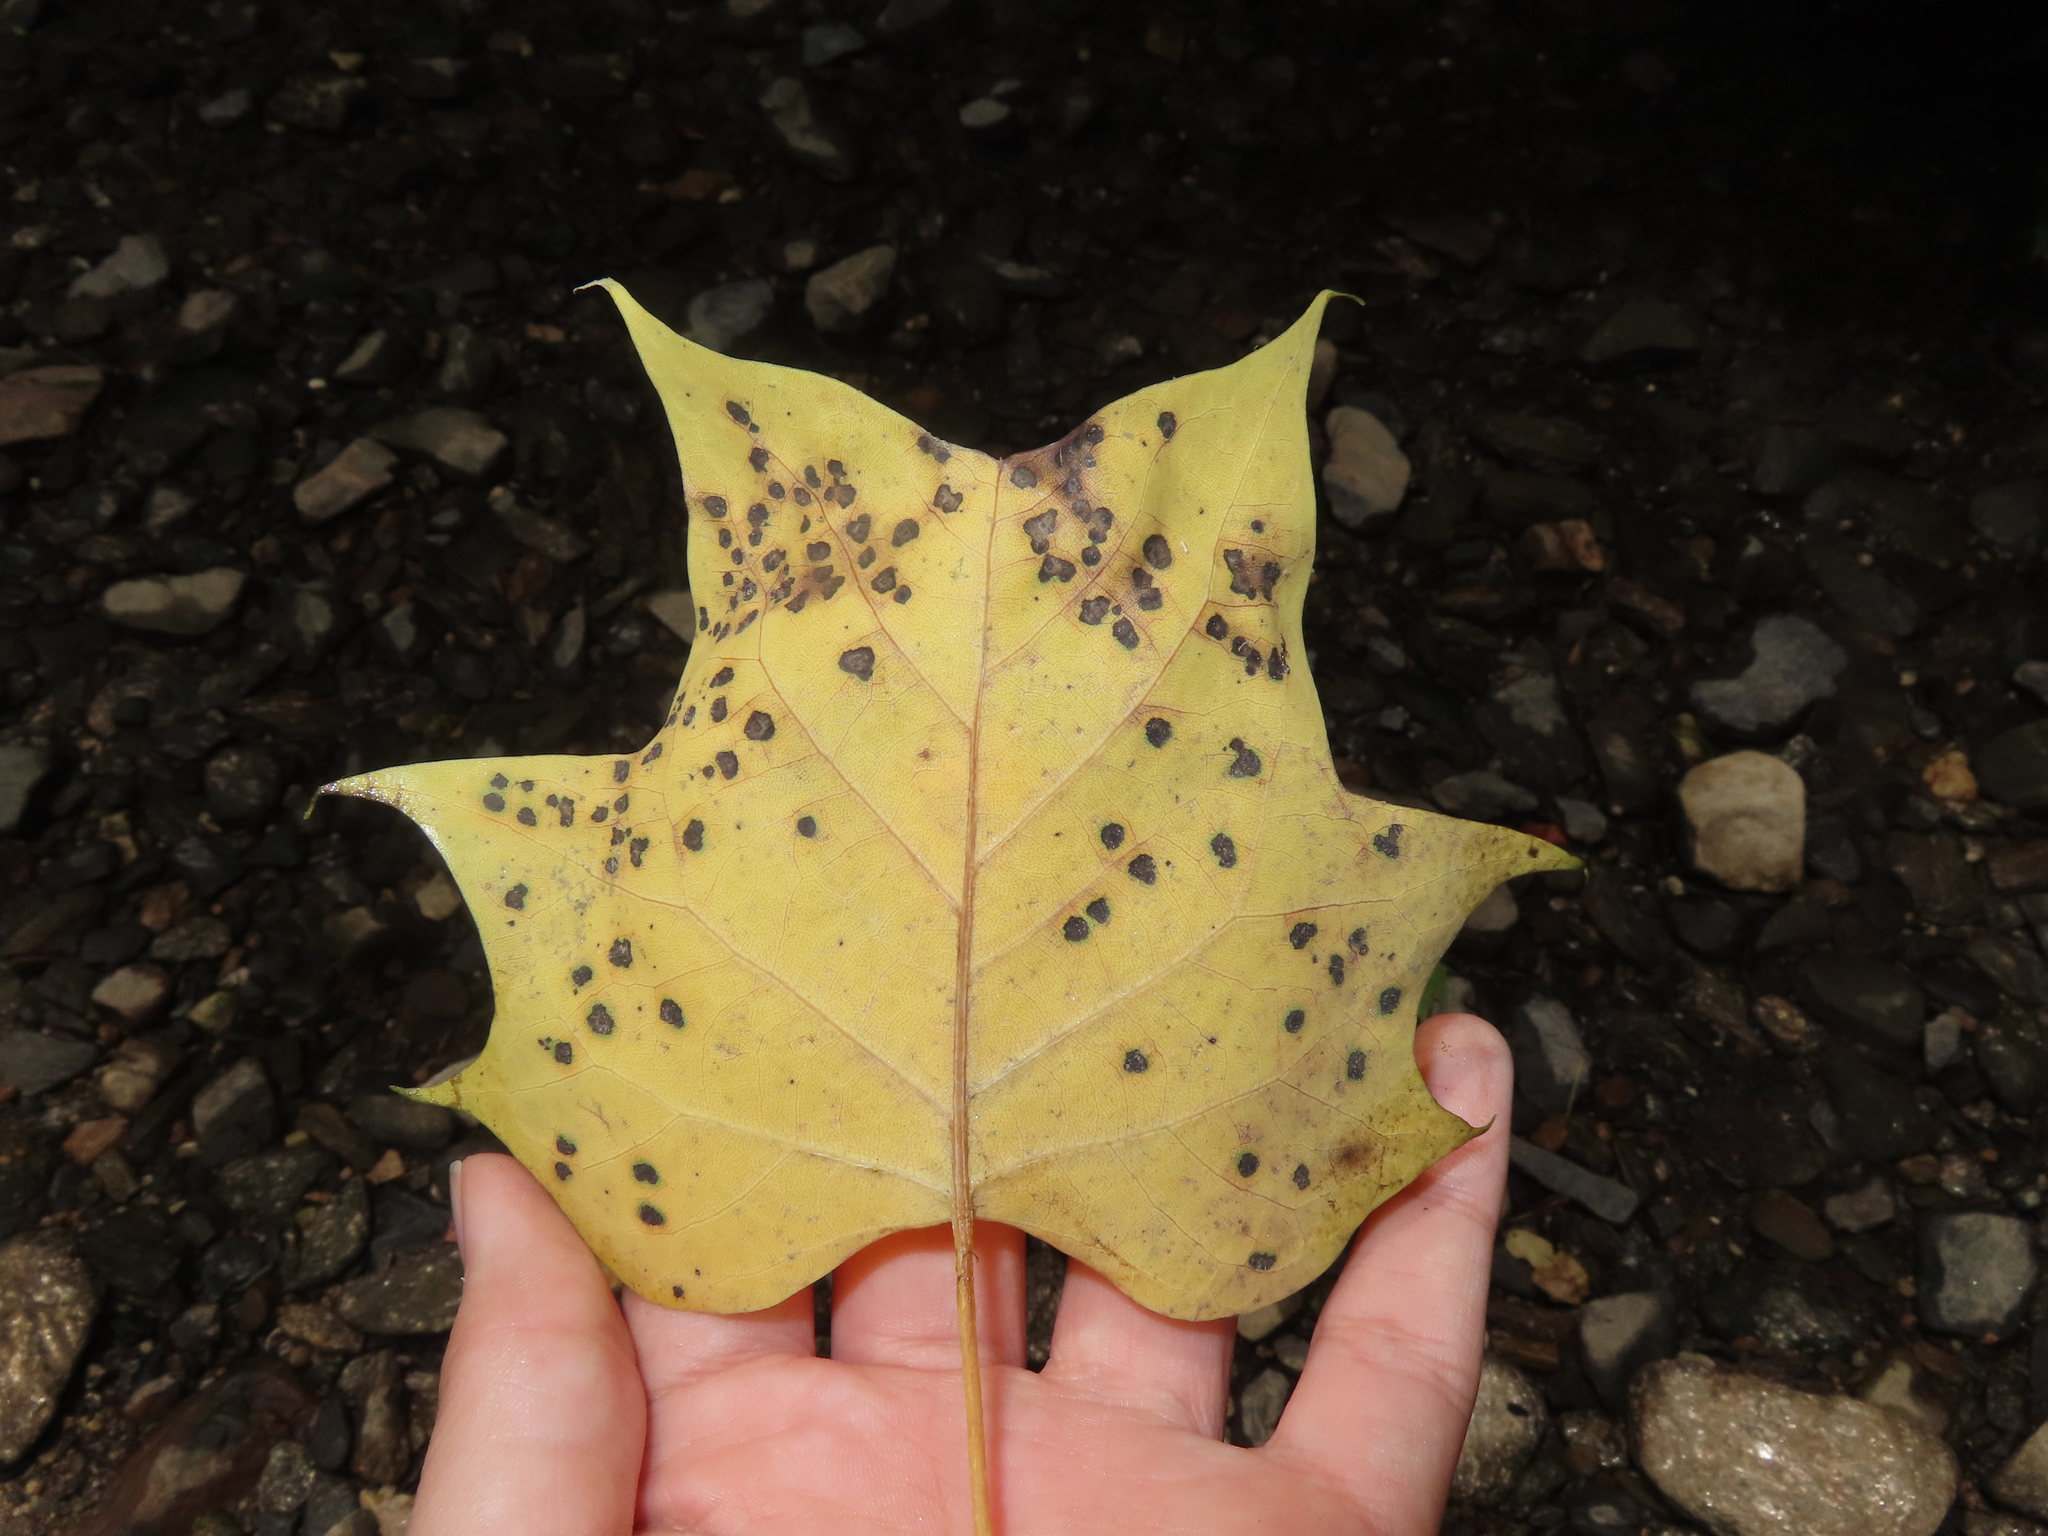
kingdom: Plantae
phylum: Tracheophyta
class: Magnoliopsida
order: Magnoliales
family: Magnoliaceae
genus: Liriodendron
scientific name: Liriodendron tulipifera
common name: Tulip tree
